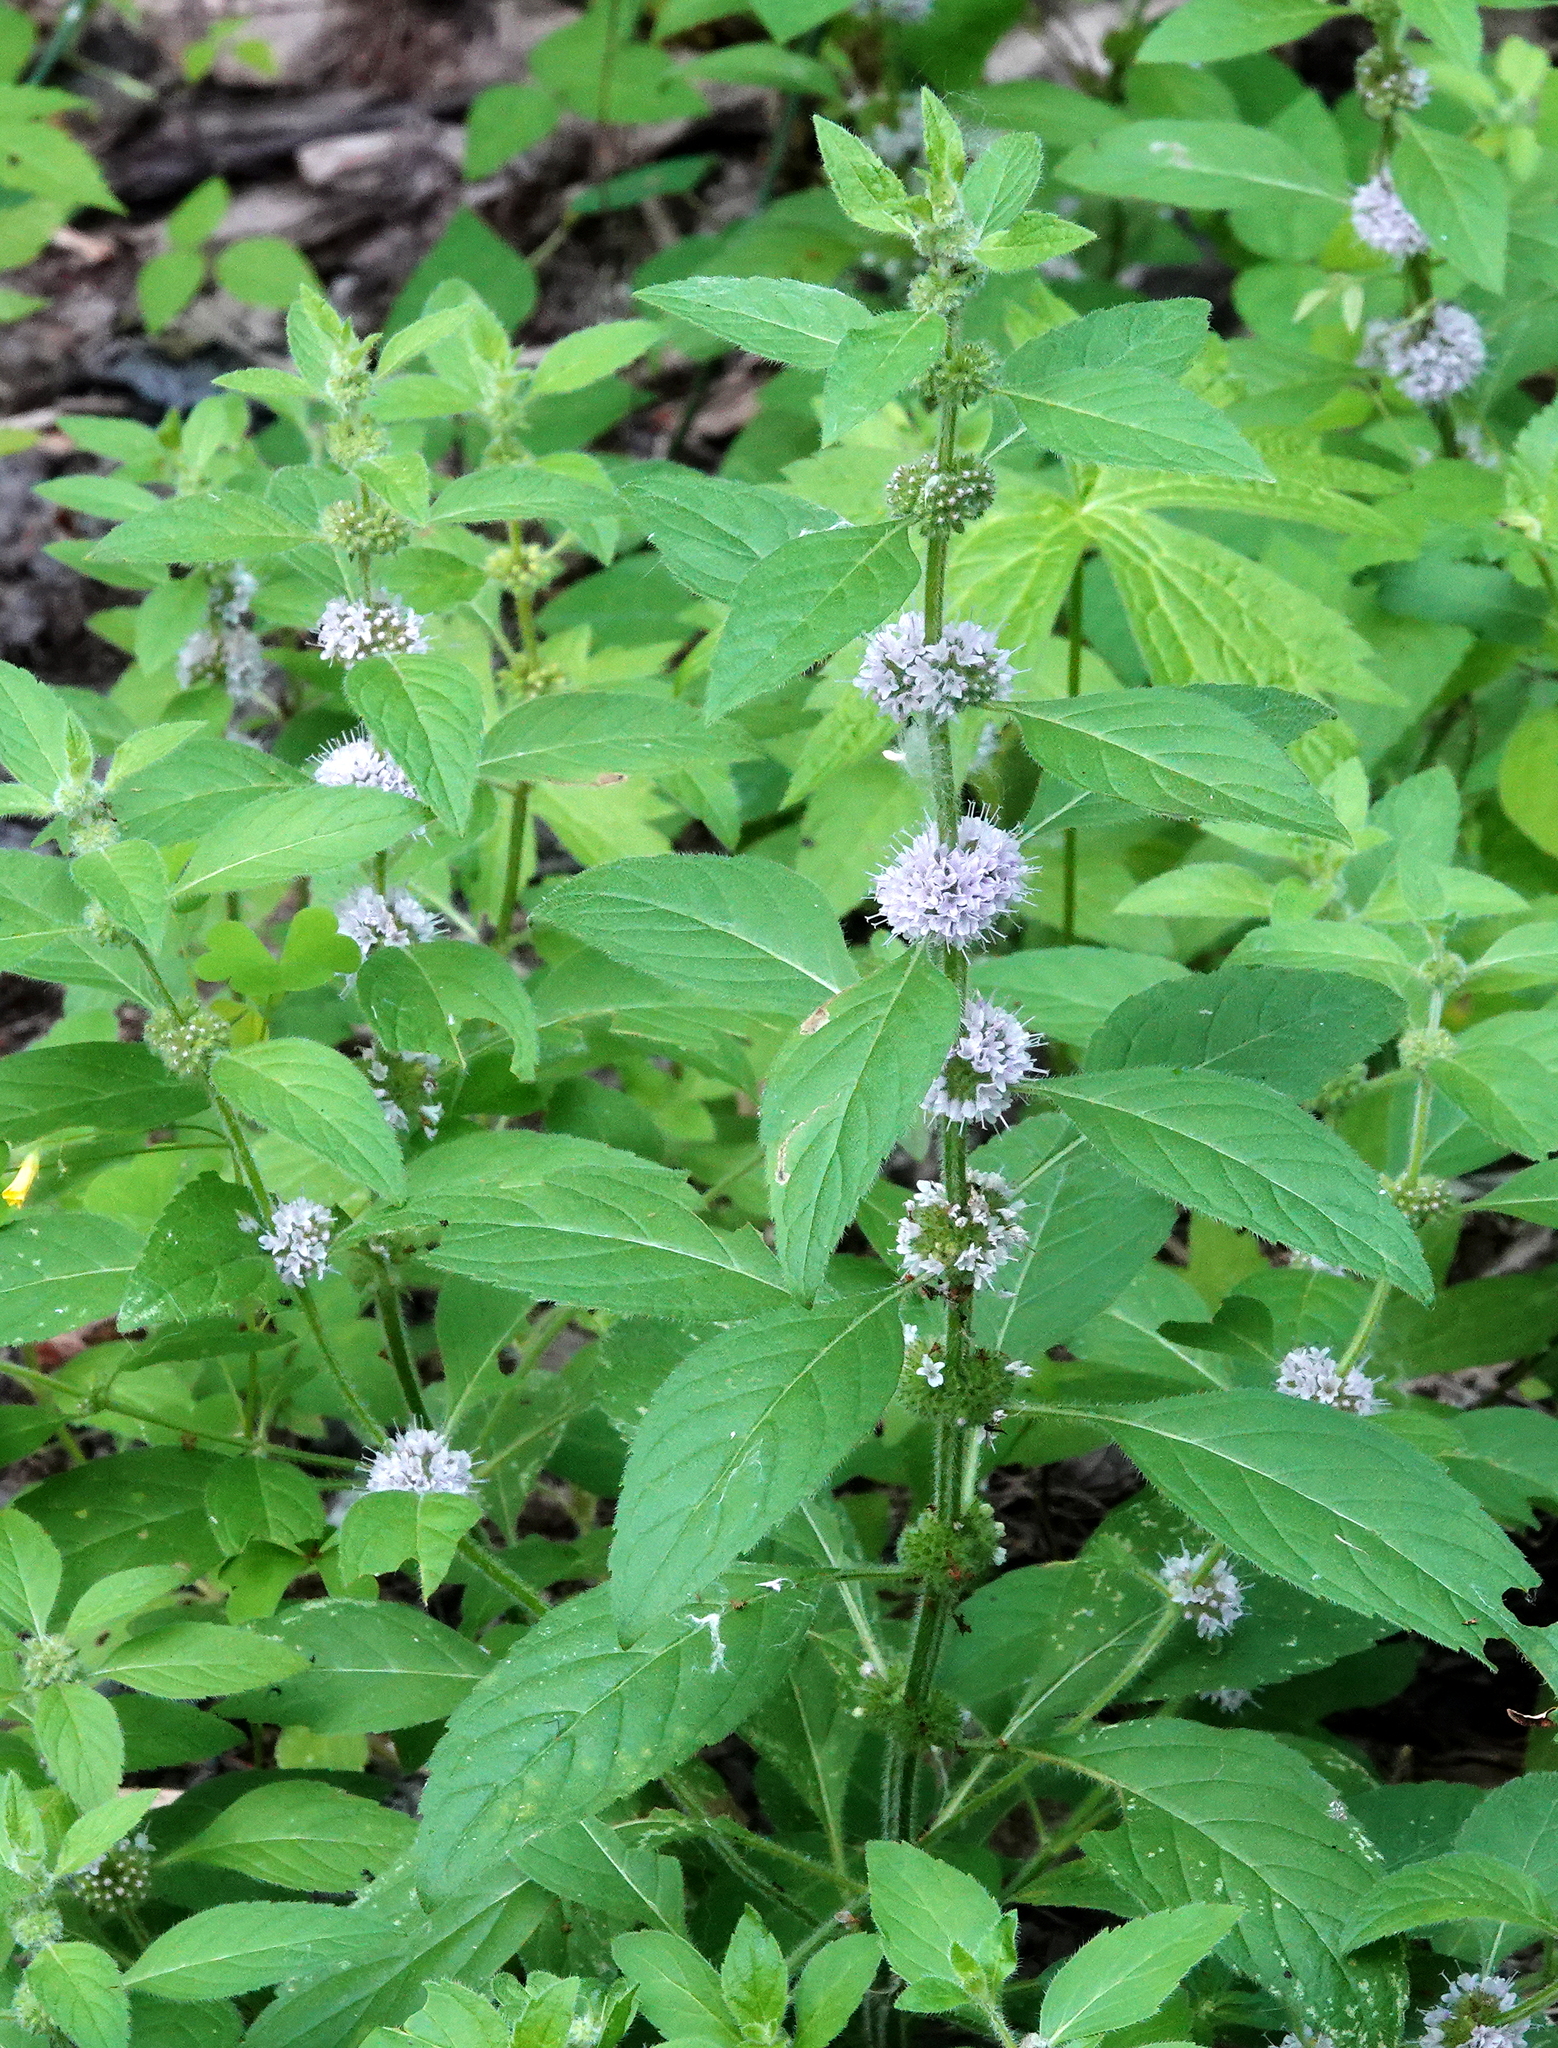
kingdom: Plantae
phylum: Tracheophyta
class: Magnoliopsida
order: Lamiales
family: Lamiaceae
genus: Mentha
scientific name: Mentha canadensis
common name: American corn mint
